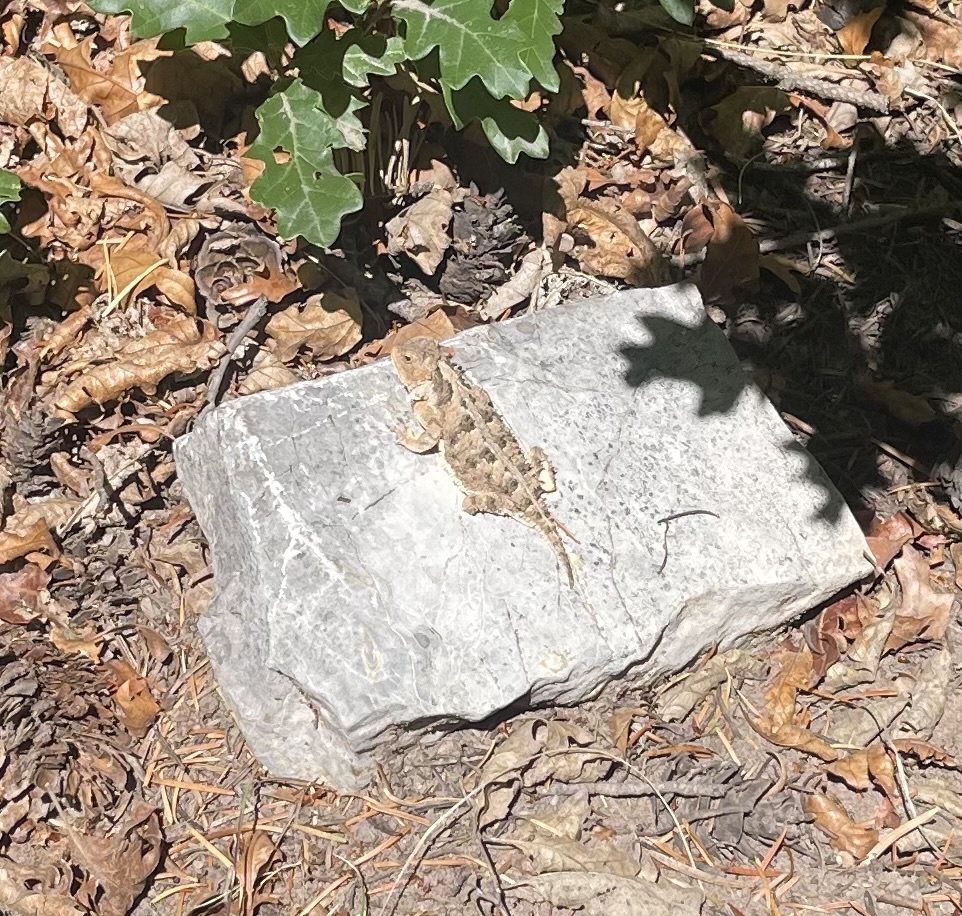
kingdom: Animalia
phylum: Chordata
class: Squamata
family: Phrynosomatidae
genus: Phrynosoma
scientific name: Phrynosoma hernandesi
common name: Greater short-horned lizard
